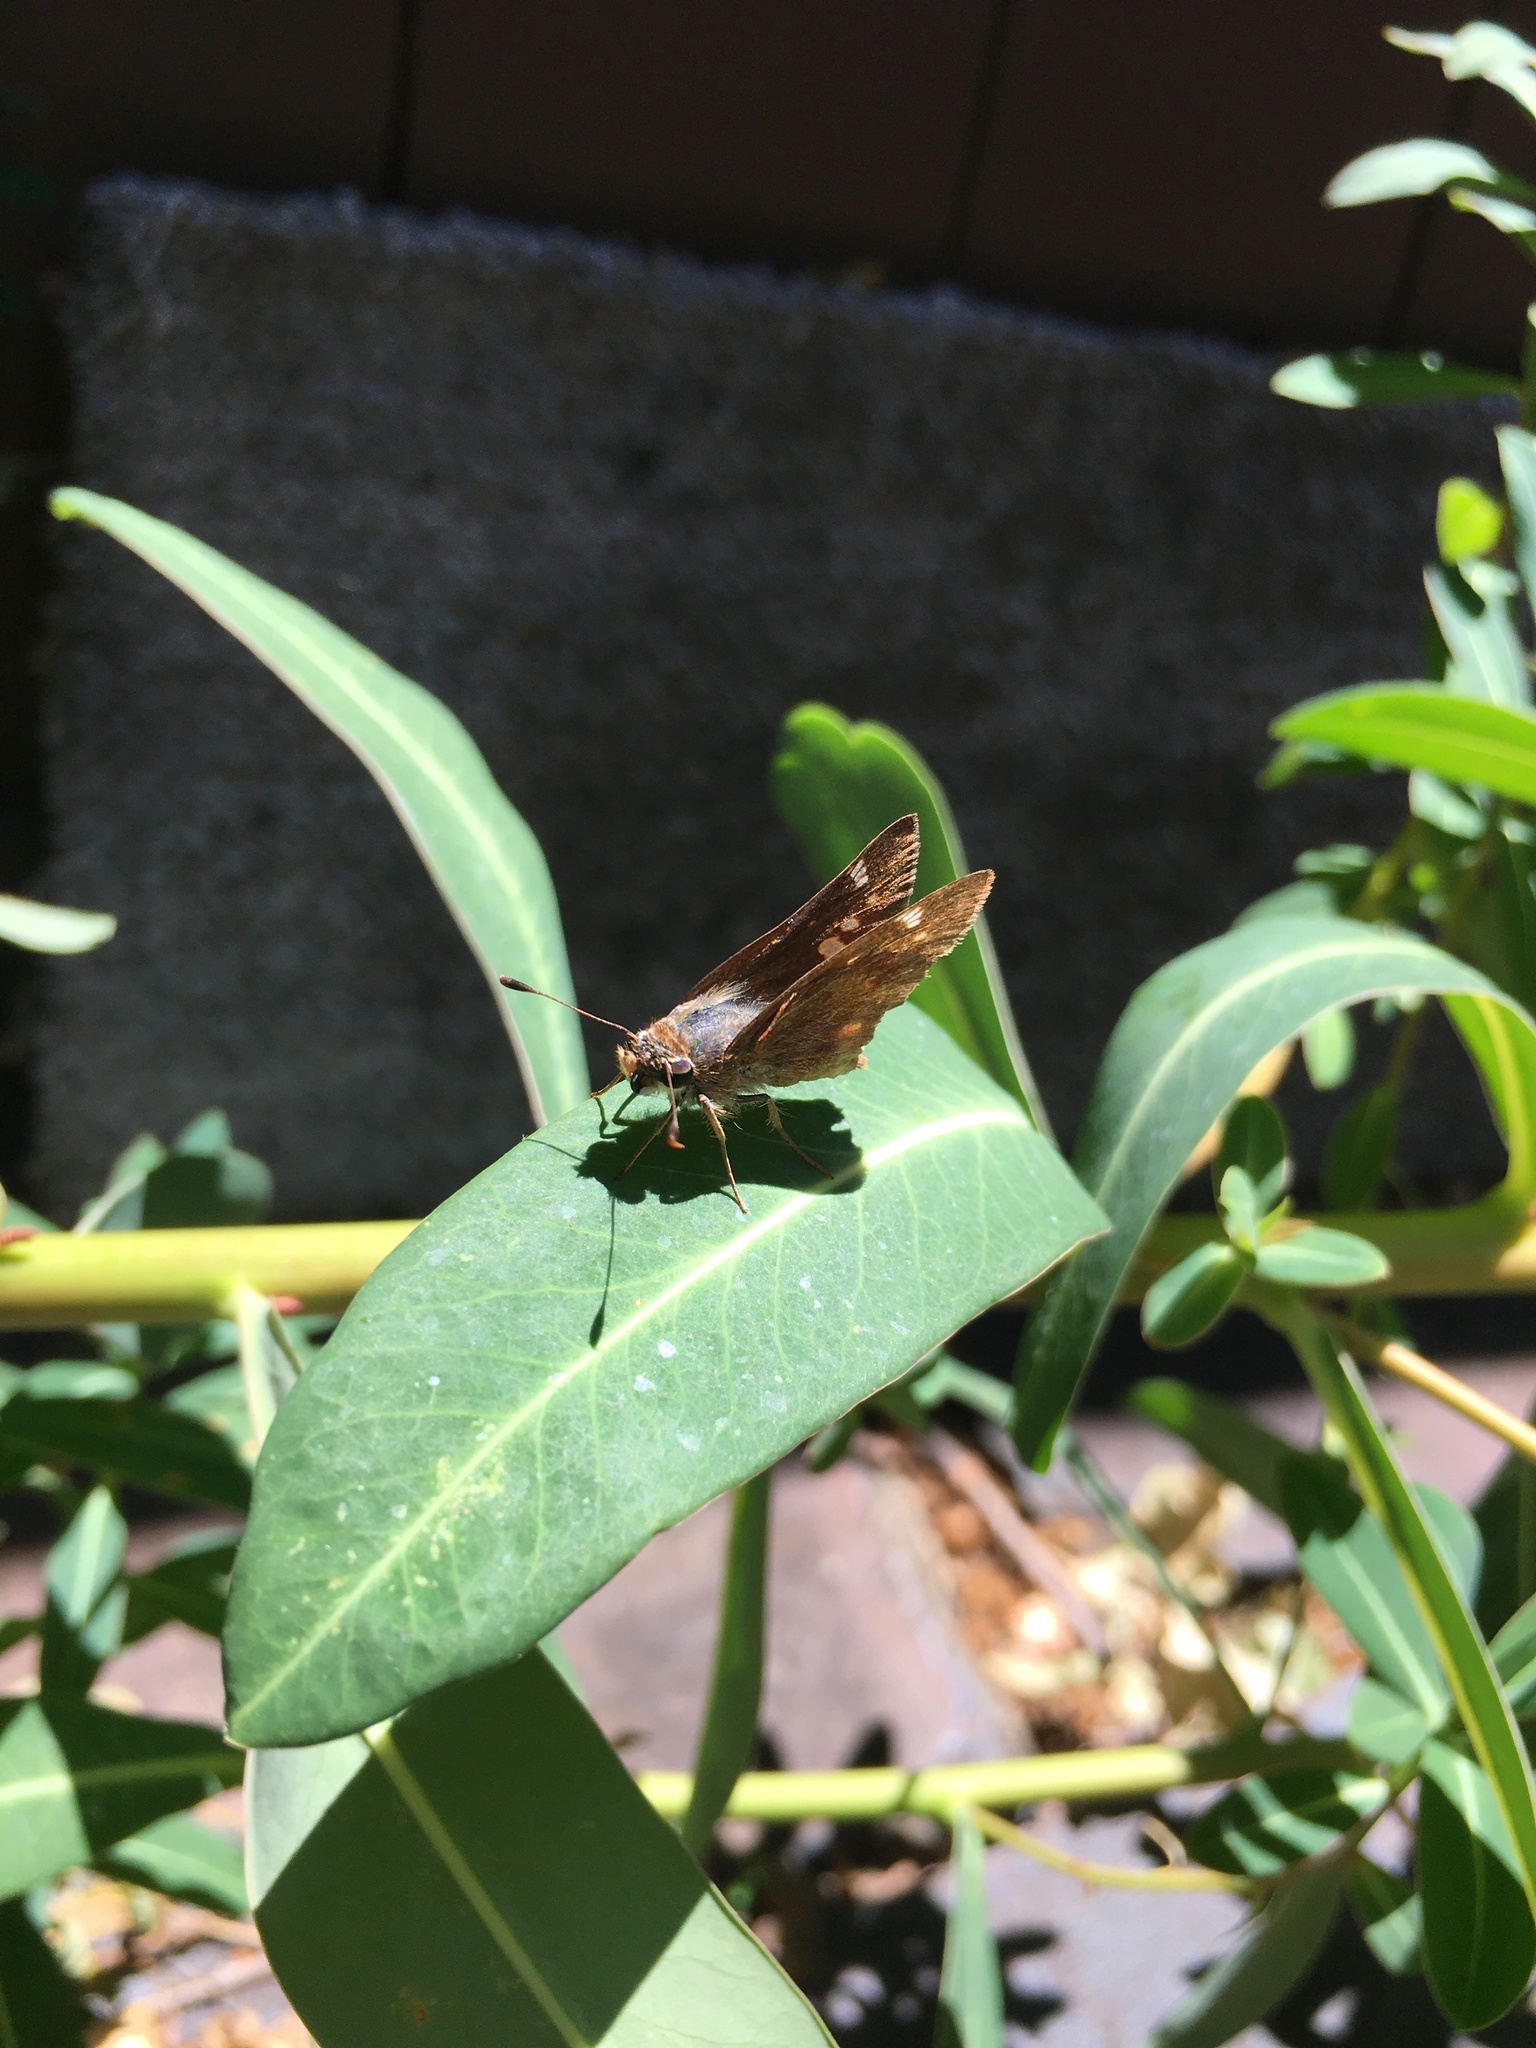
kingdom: Animalia
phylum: Arthropoda
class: Insecta
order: Lepidoptera
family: Hesperiidae
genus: Lon
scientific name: Lon melane
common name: Umber skipper
